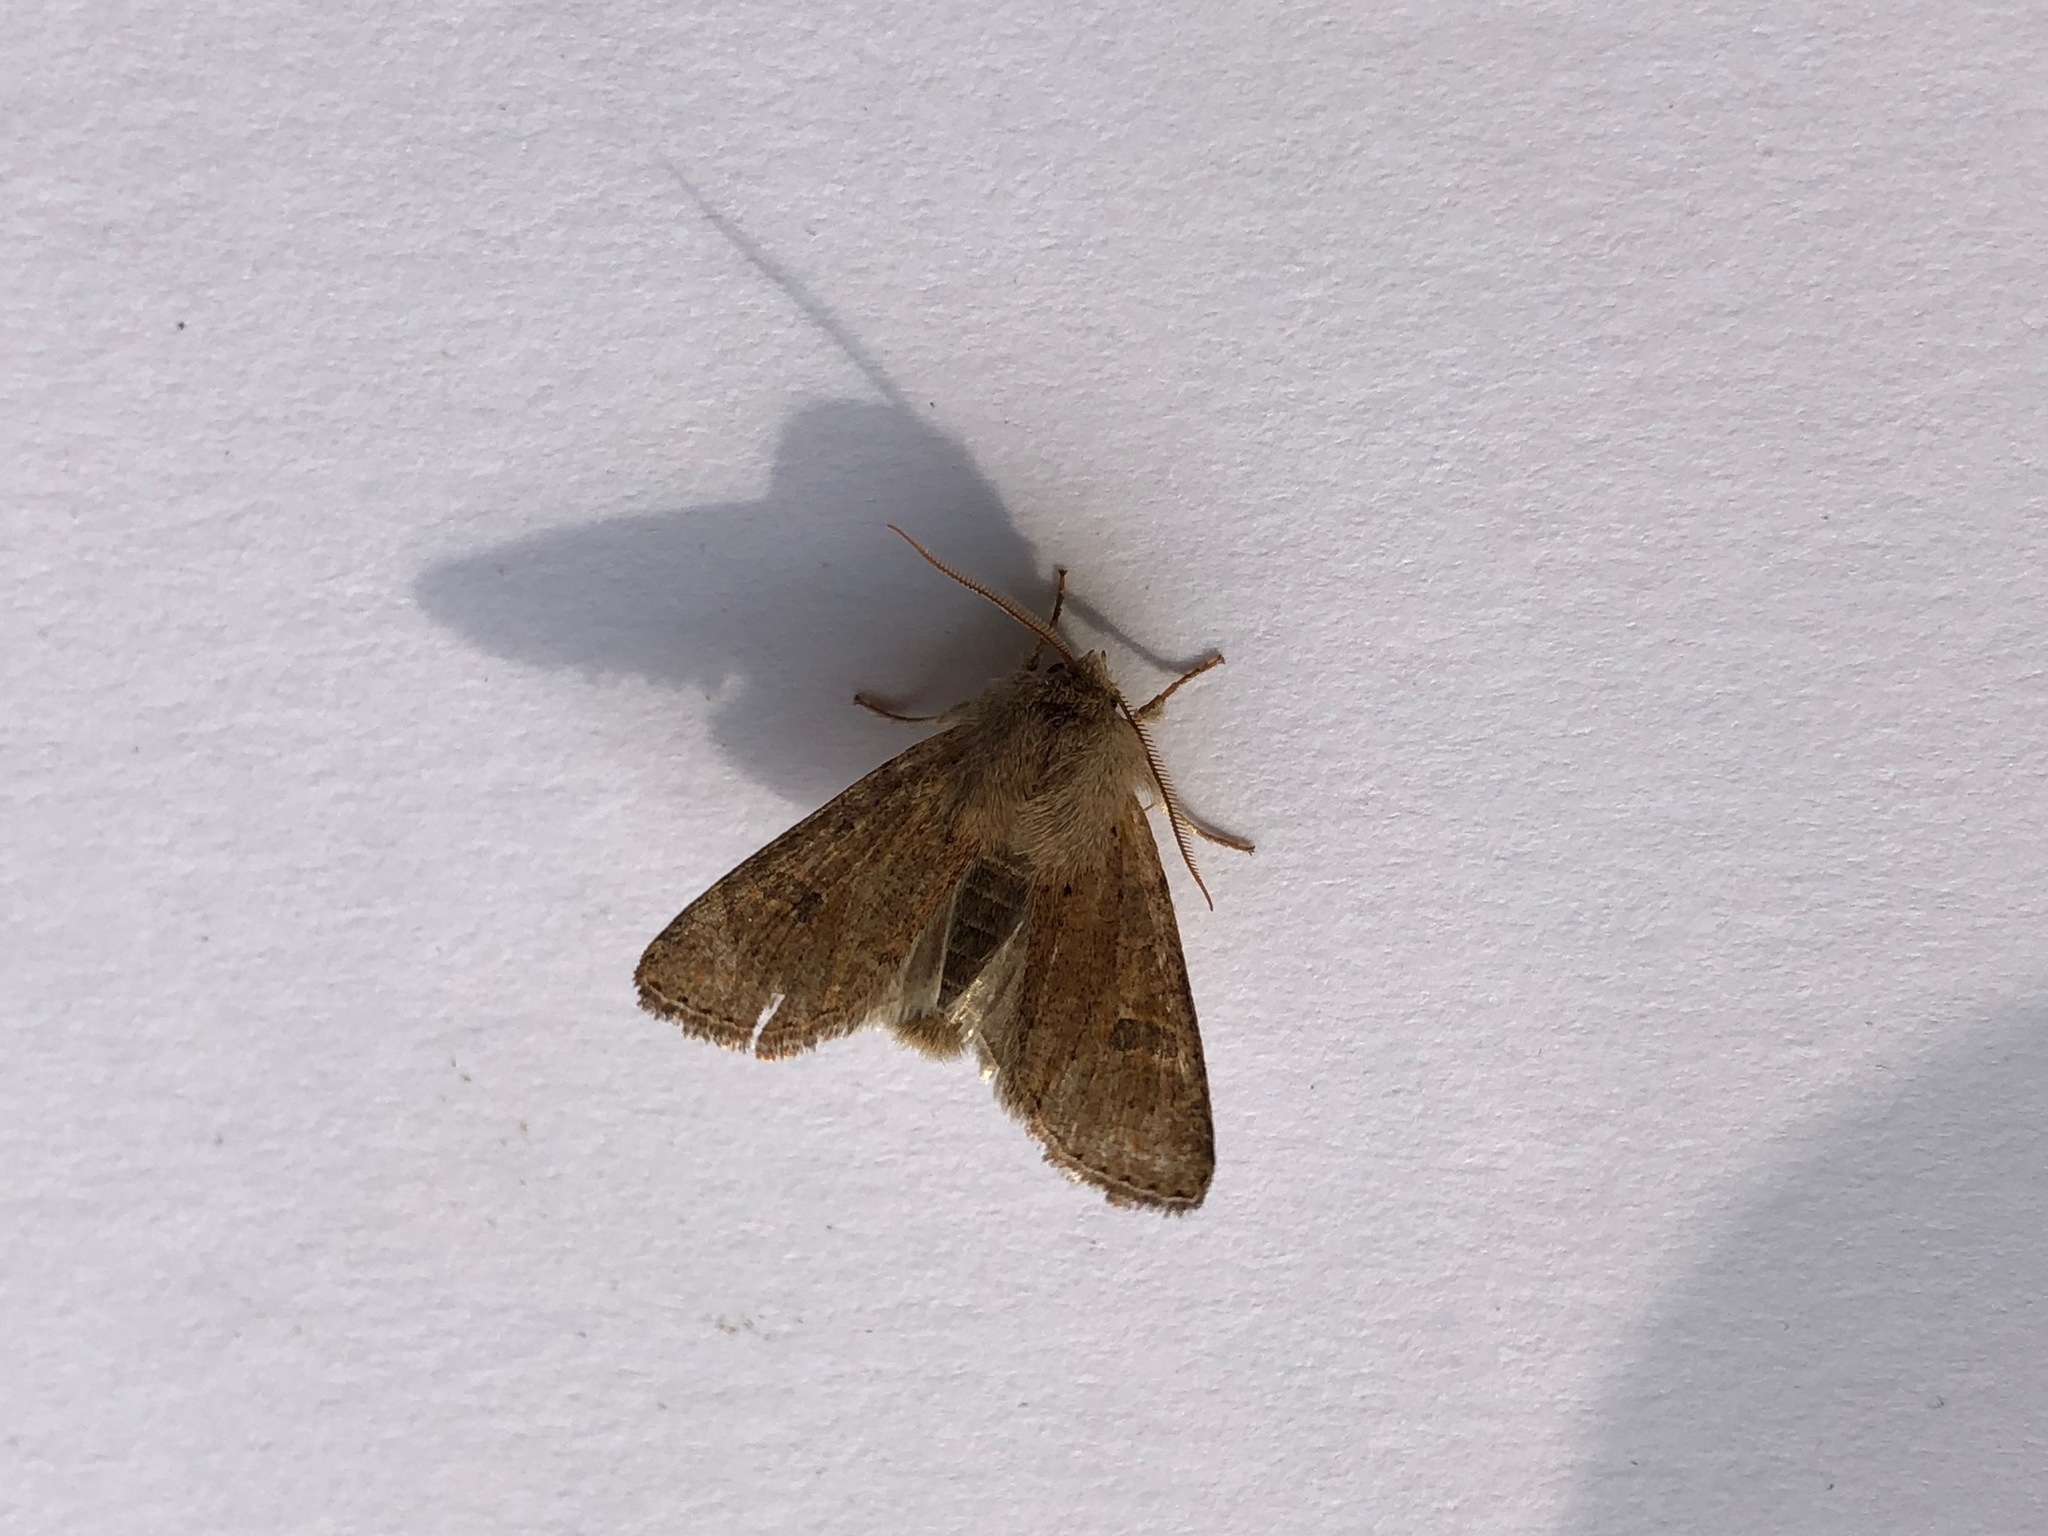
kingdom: Animalia
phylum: Arthropoda
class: Insecta
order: Lepidoptera
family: Noctuidae
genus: Orthosia
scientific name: Orthosia cruda
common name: Small quaker
